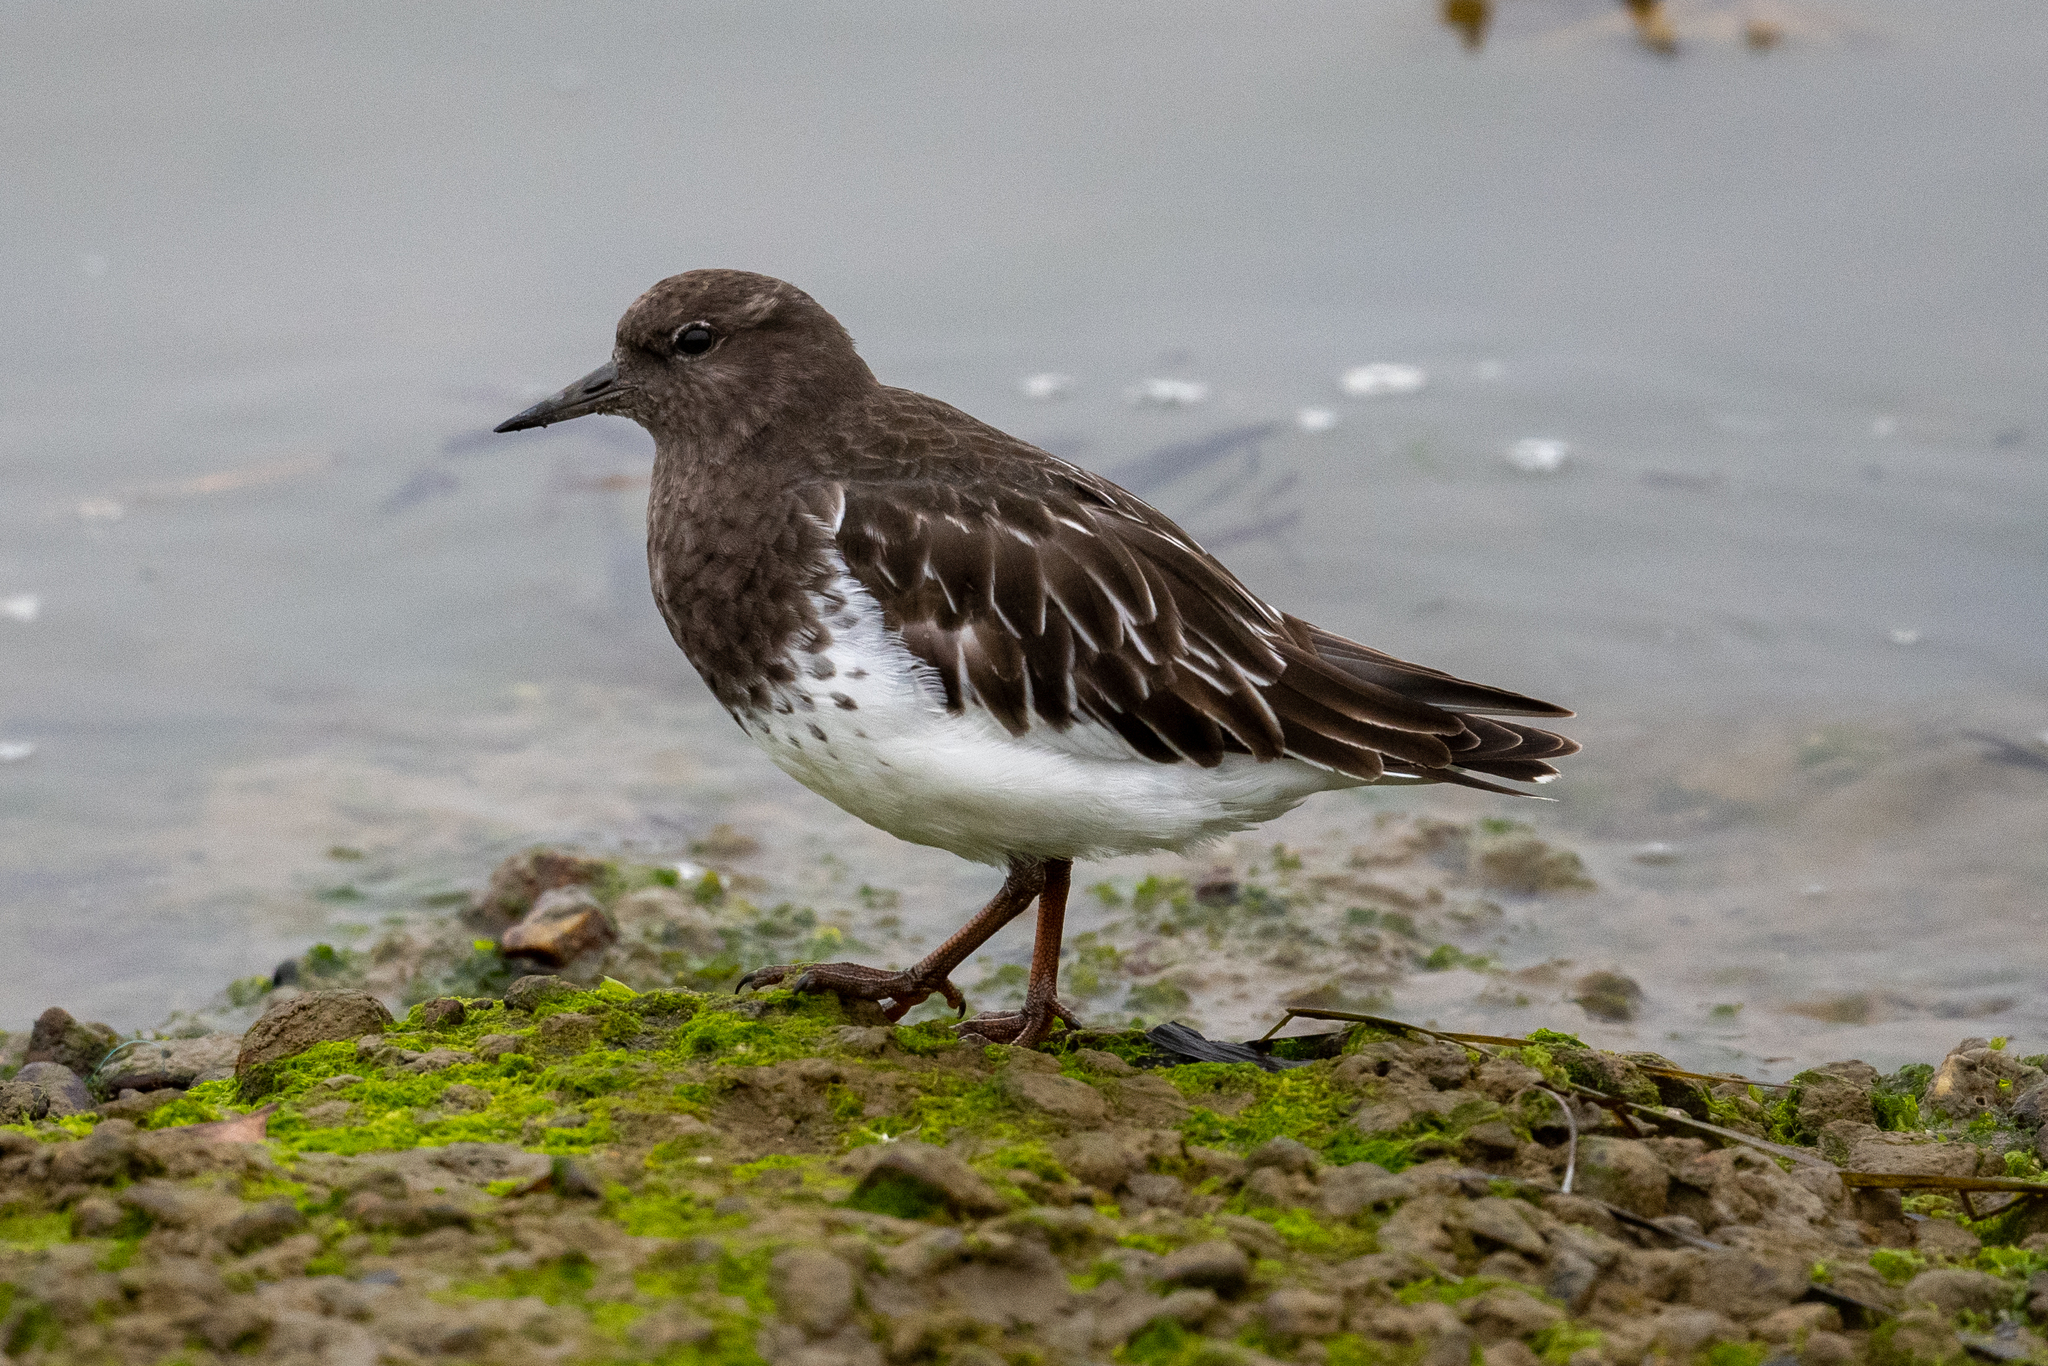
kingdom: Animalia
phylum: Chordata
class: Aves
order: Charadriiformes
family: Scolopacidae
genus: Arenaria
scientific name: Arenaria melanocephala
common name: Black turnstone
